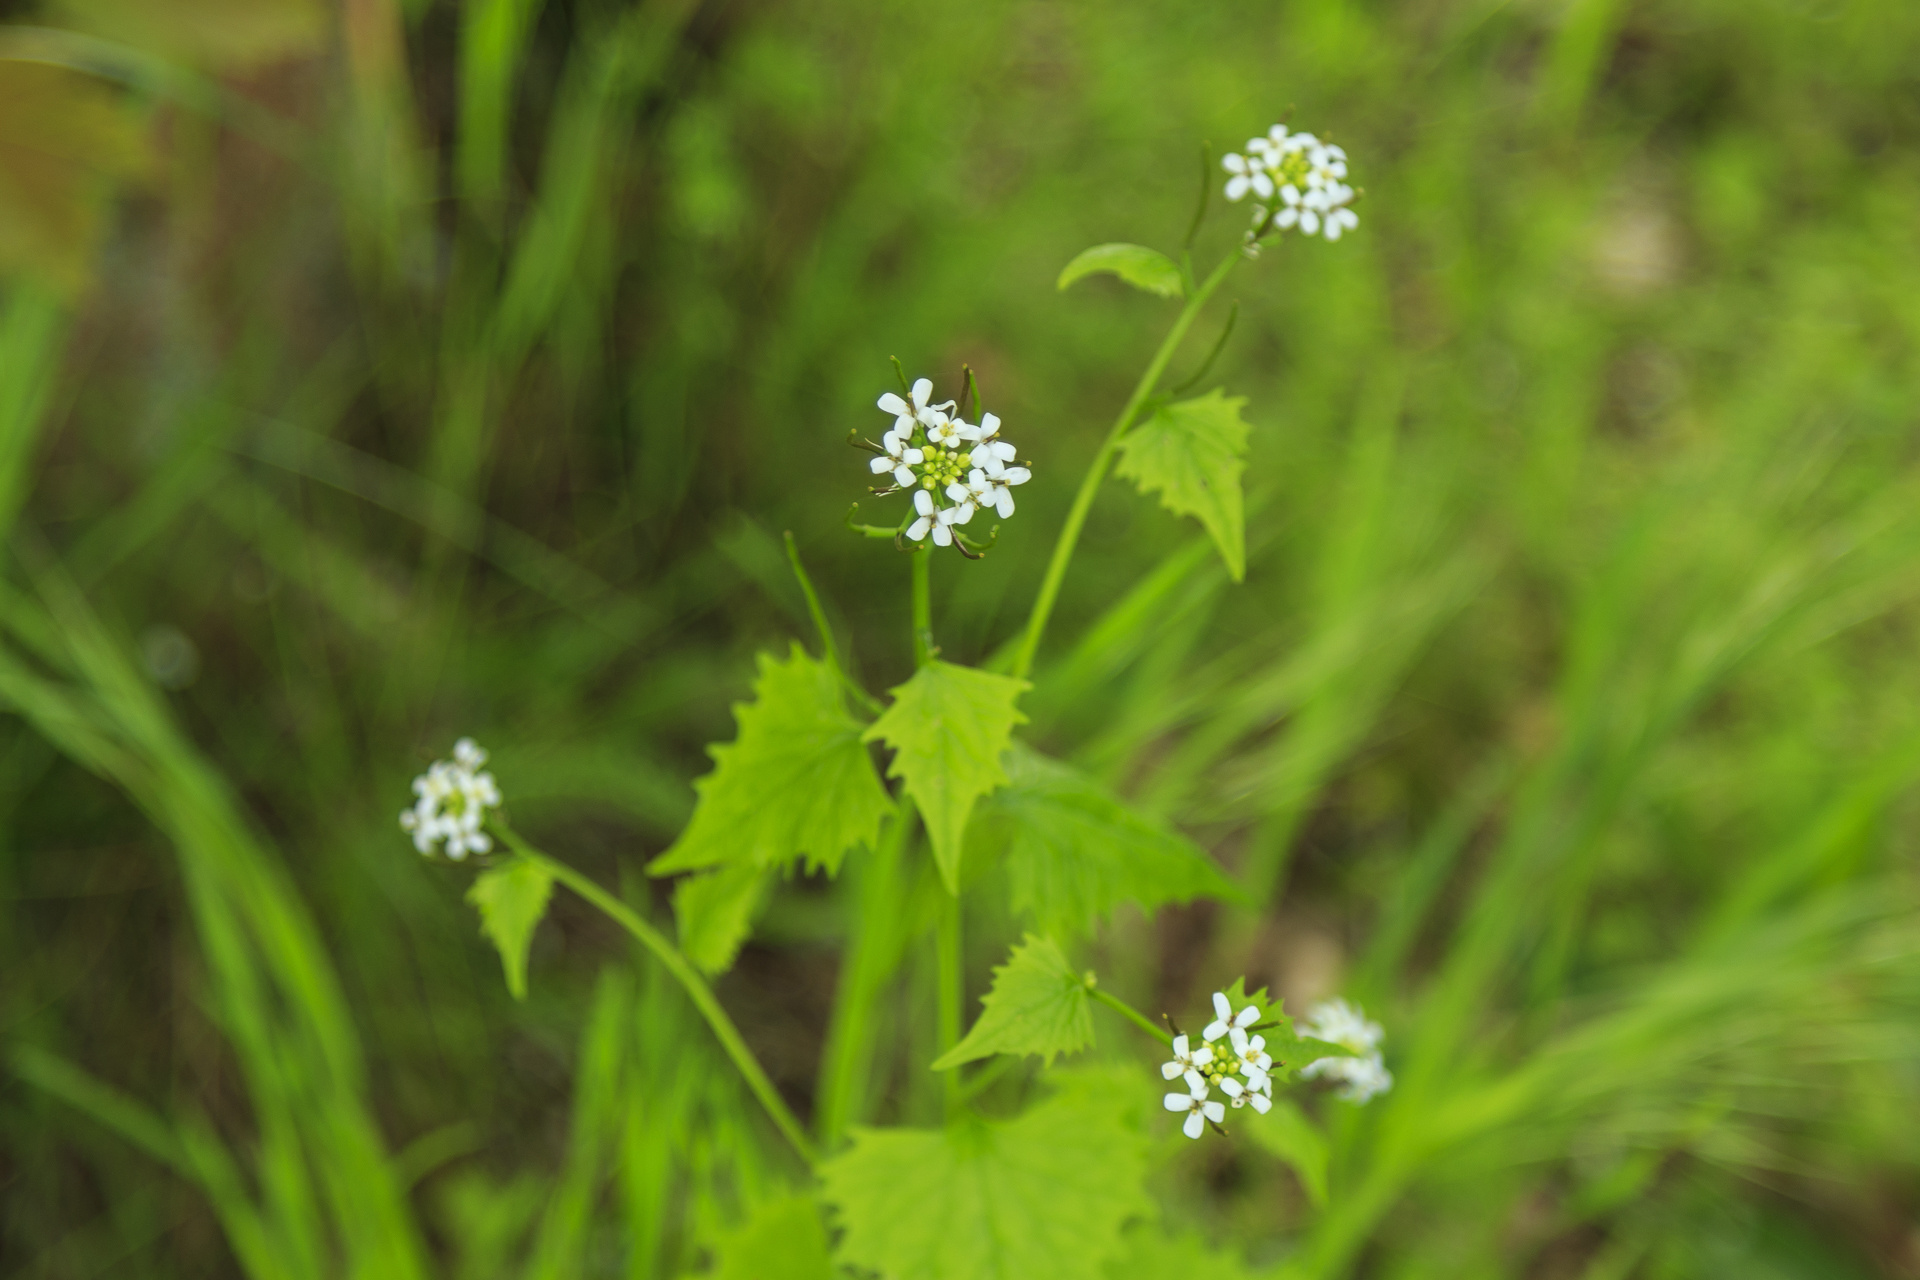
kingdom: Plantae
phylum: Tracheophyta
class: Magnoliopsida
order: Brassicales
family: Brassicaceae
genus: Alliaria
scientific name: Alliaria petiolata
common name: Garlic mustard
